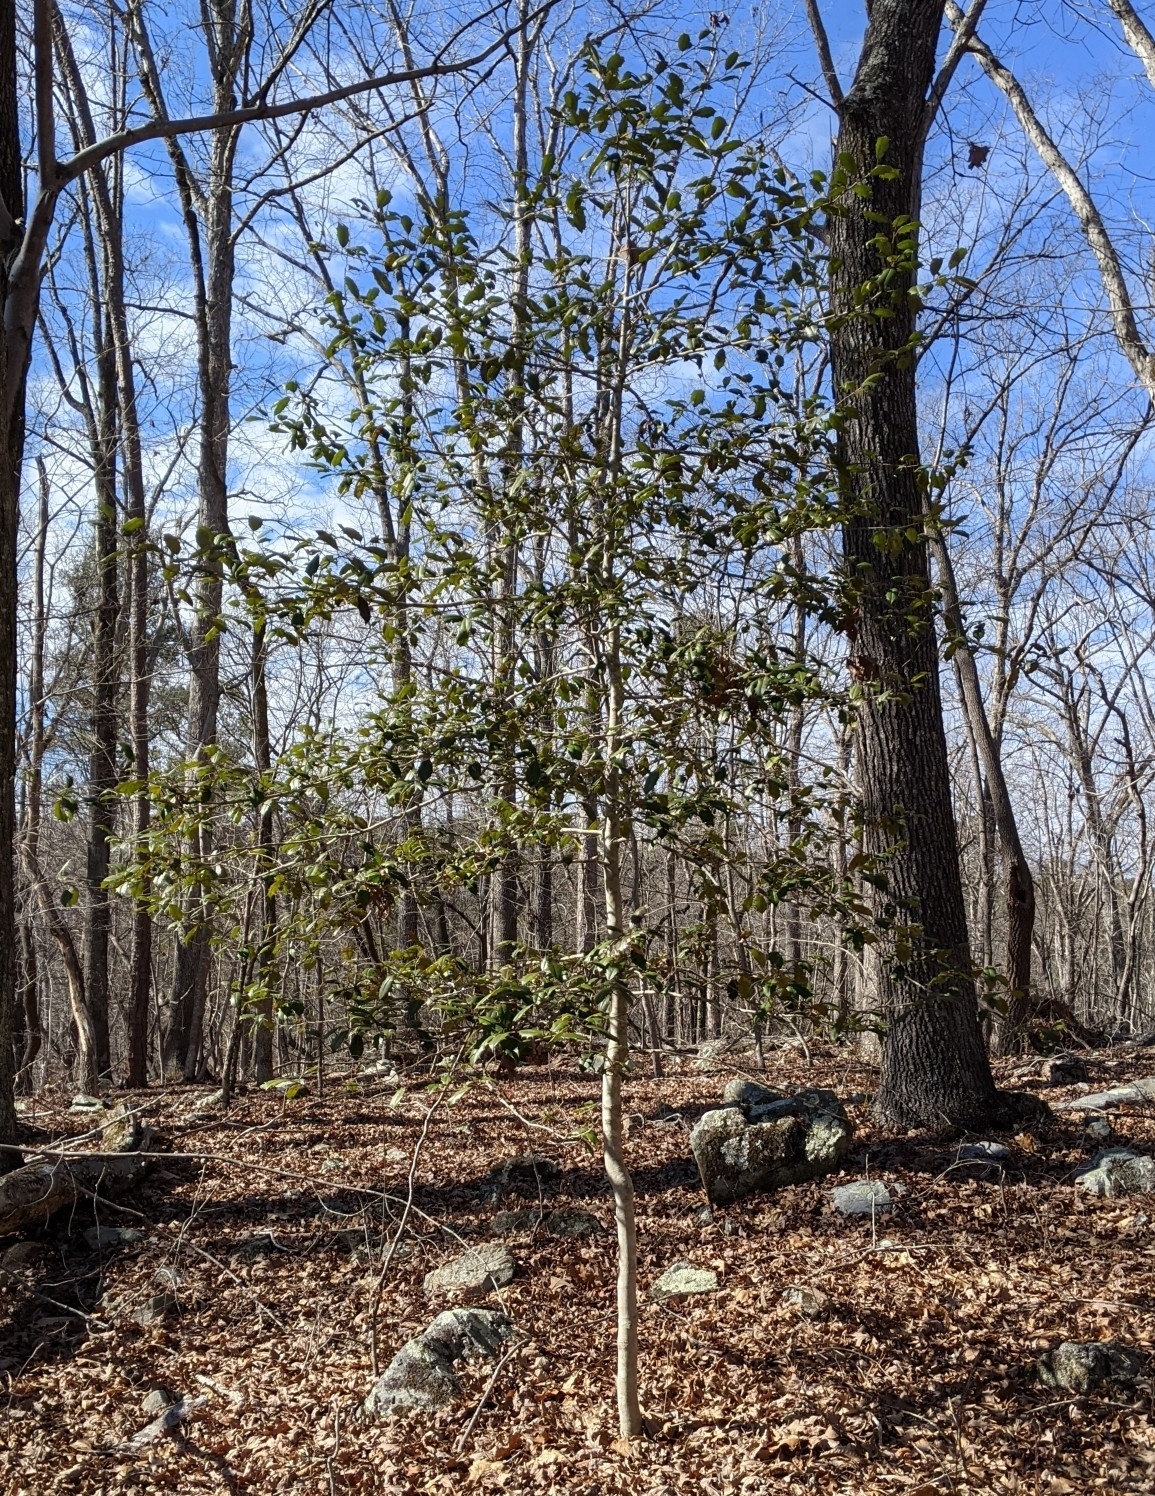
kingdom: Plantae
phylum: Tracheophyta
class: Magnoliopsida
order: Aquifoliales
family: Aquifoliaceae
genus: Ilex
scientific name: Ilex opaca
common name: American holly
